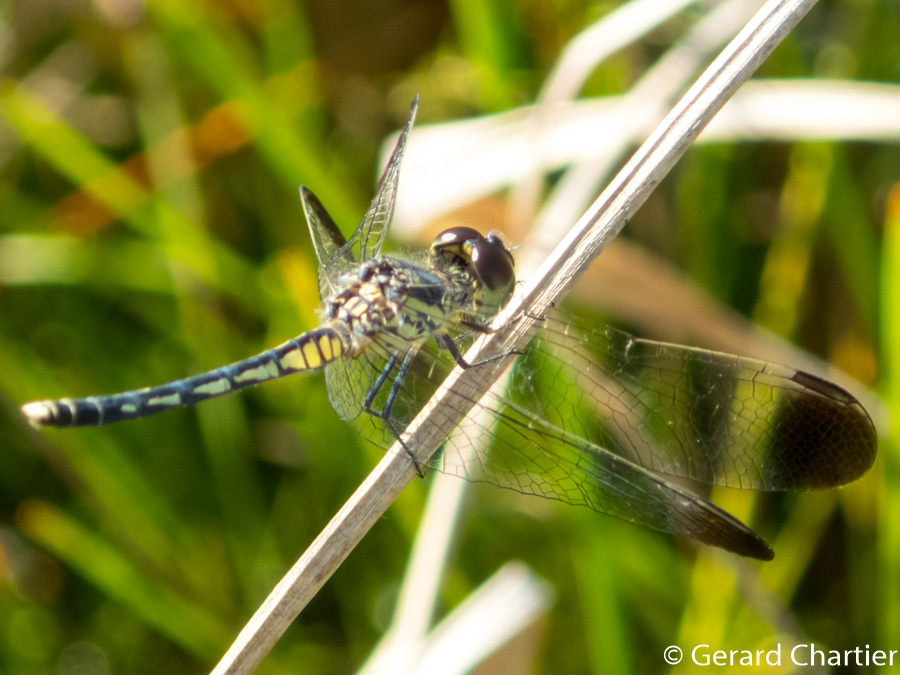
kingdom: Animalia
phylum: Arthropoda
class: Insecta
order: Odonata
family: Libellulidae
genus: Diplacodes
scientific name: Diplacodes nebulosa
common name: Black-tipped percher
